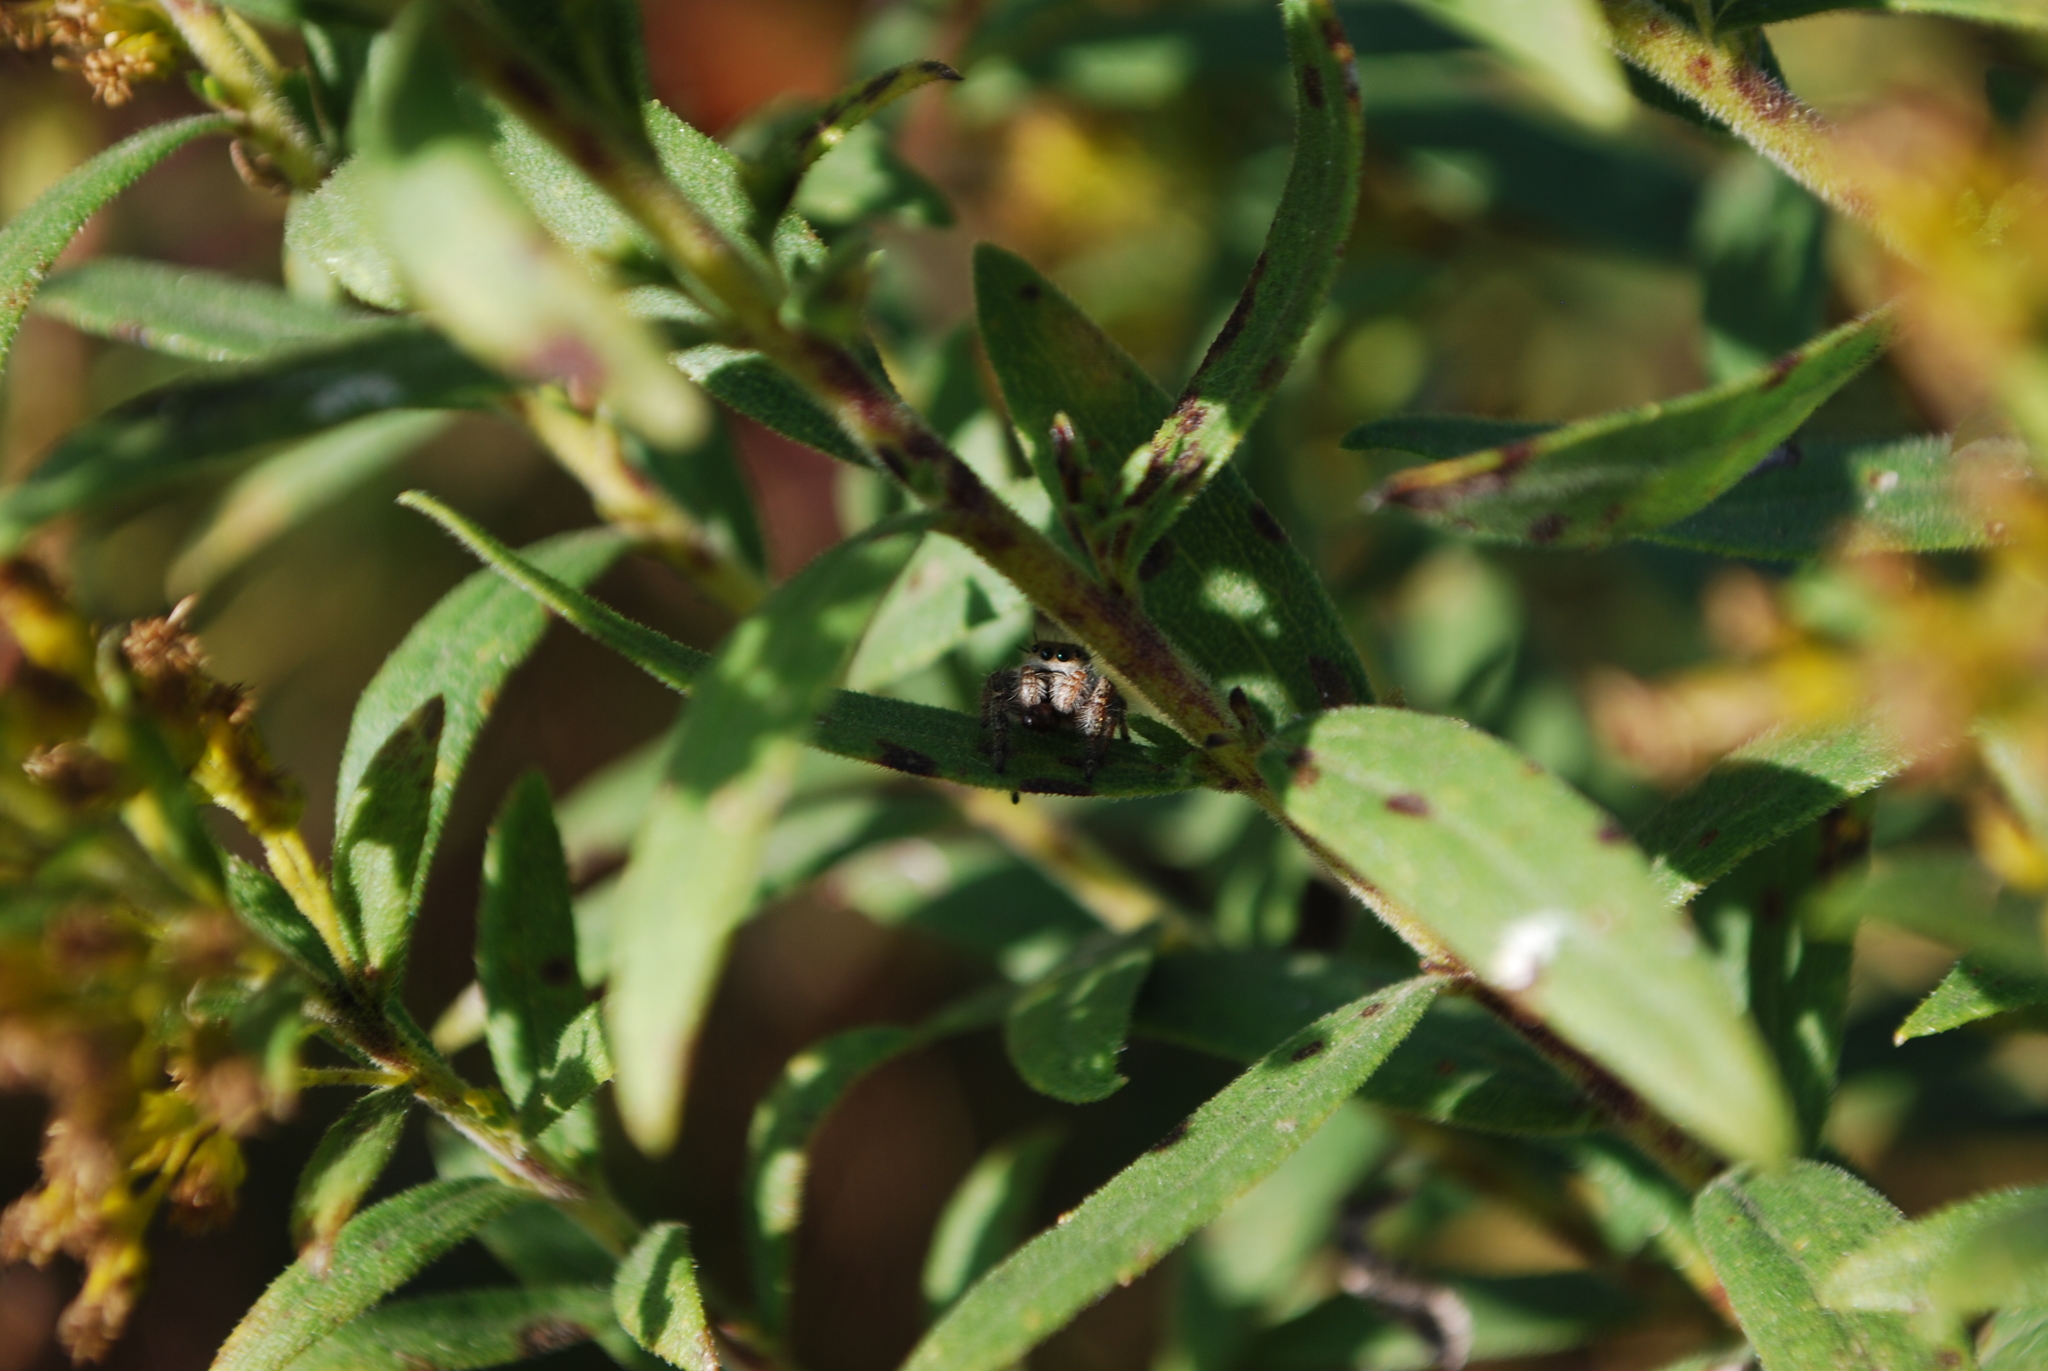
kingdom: Animalia
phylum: Arthropoda
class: Arachnida
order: Araneae
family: Salticidae
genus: Phidippus
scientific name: Phidippus princeps
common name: Grayish jumping spider
